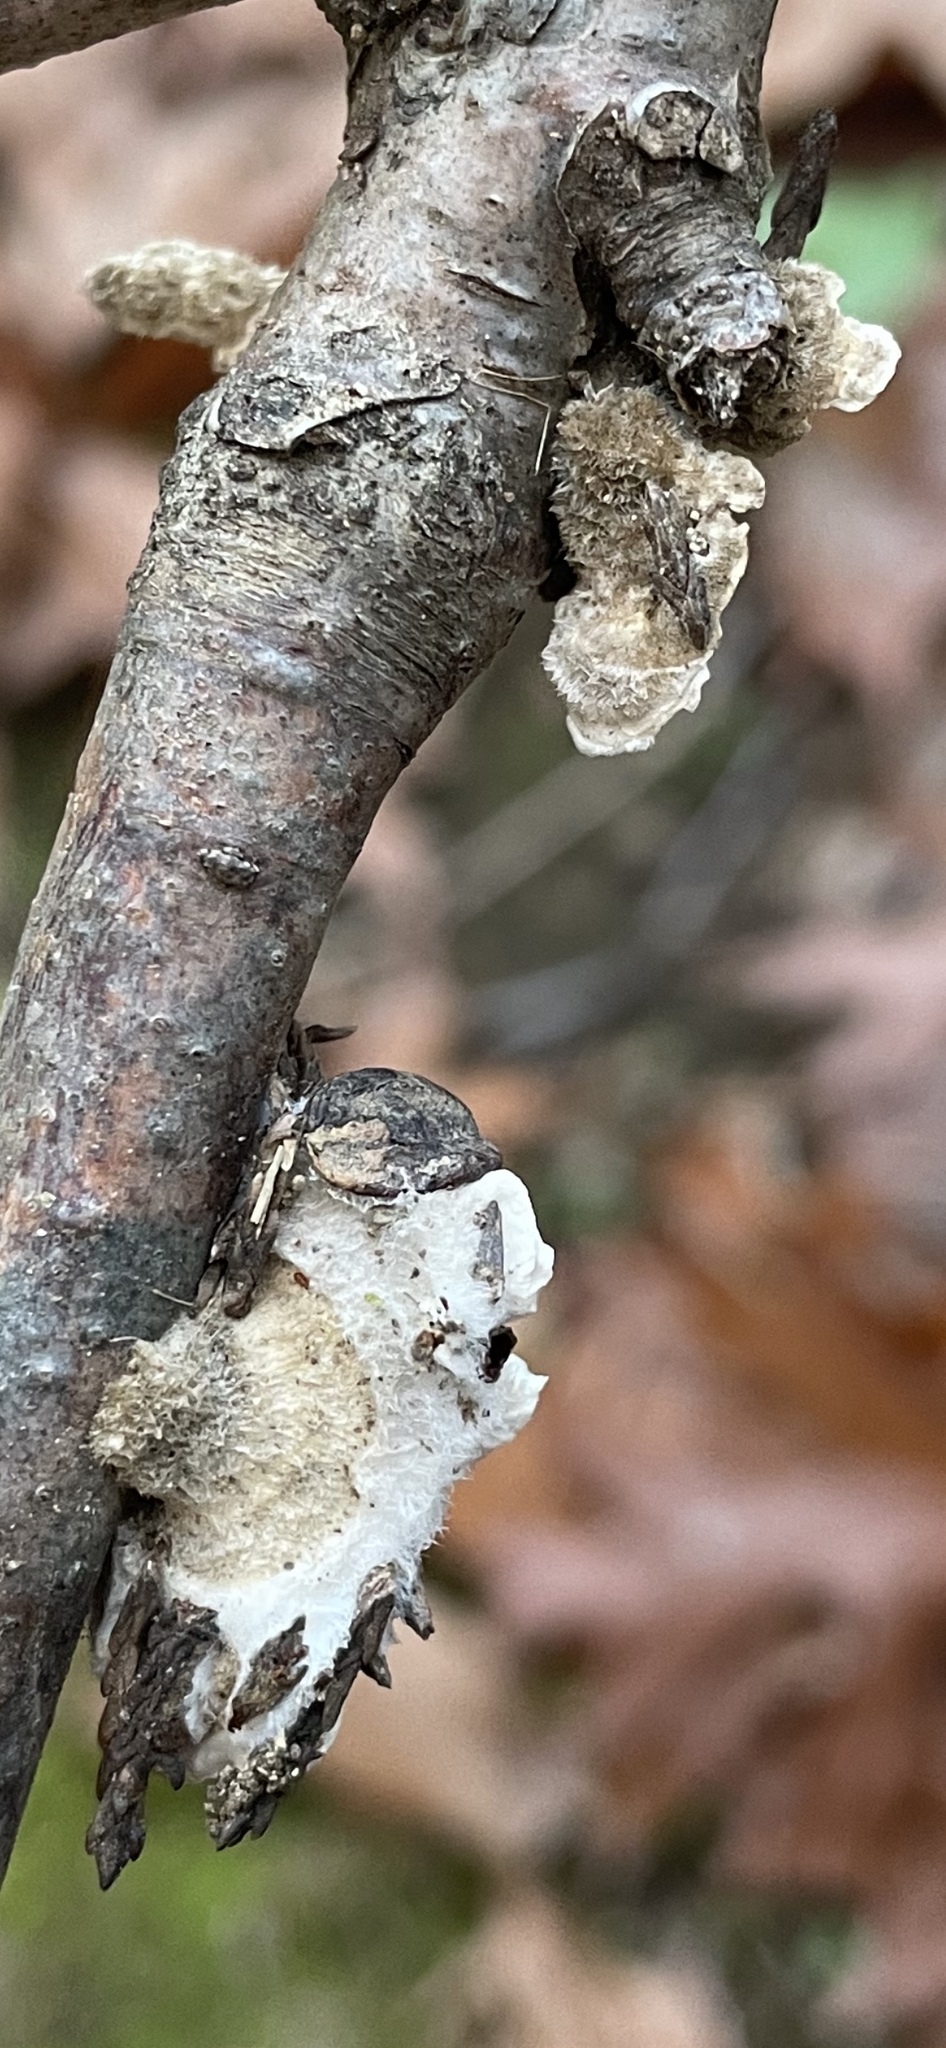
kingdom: Fungi
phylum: Basidiomycota
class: Agaricomycetes
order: Polyporales
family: Polyporaceae
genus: Lenzites
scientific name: Lenzites betulinus
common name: Birch mazegill
